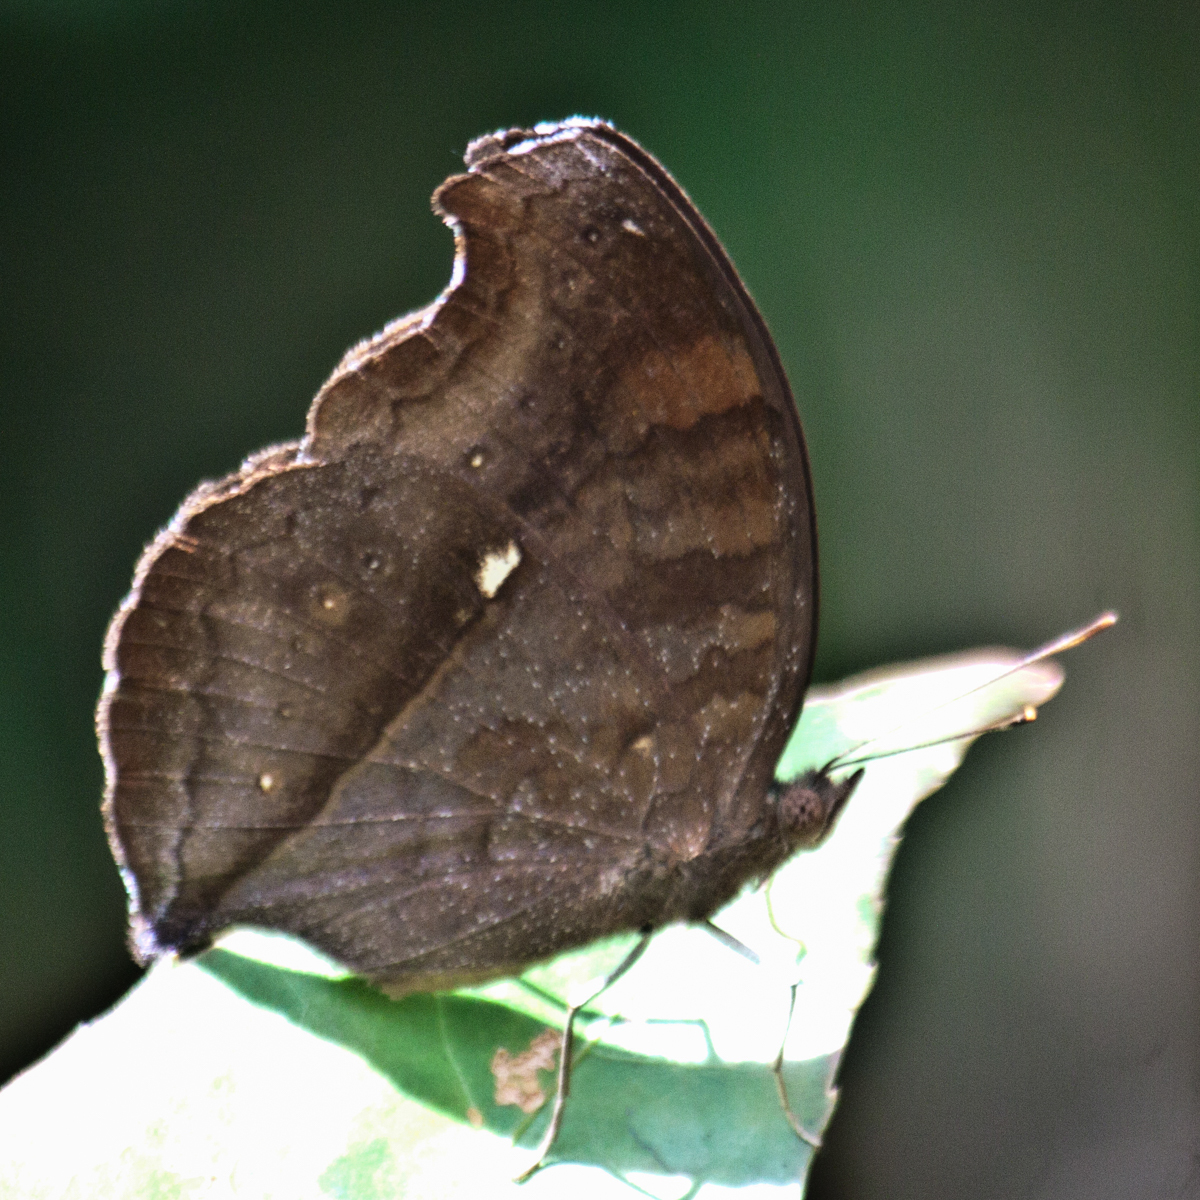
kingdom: Animalia
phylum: Arthropoda
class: Insecta
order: Lepidoptera
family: Nymphalidae
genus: Junonia
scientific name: Junonia iphita
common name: Chocolate pansy
